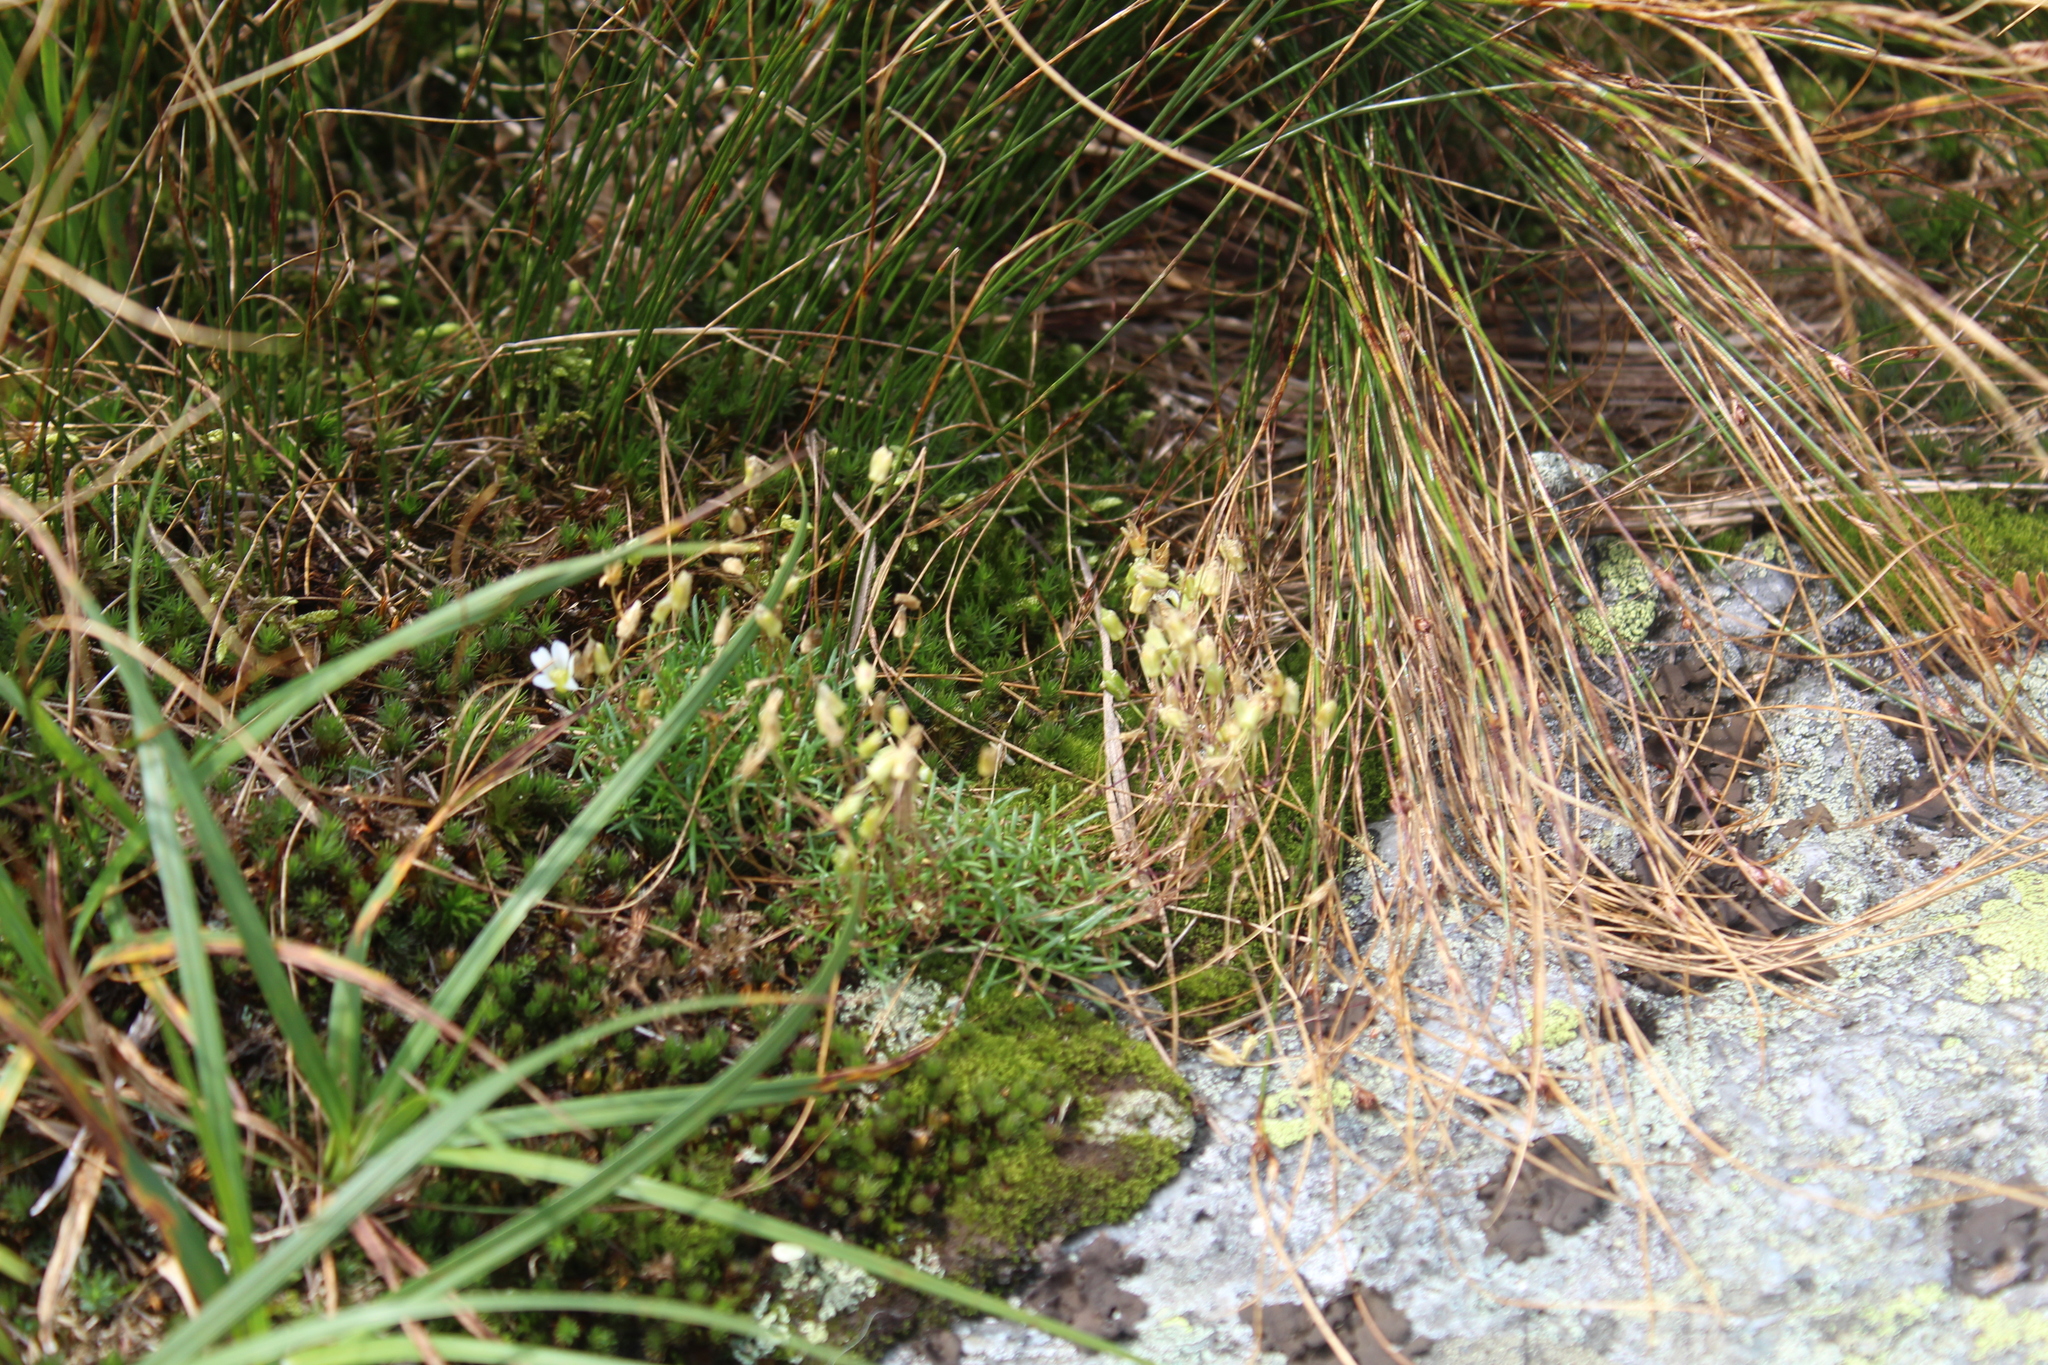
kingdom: Plantae
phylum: Tracheophyta
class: Magnoliopsida
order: Caryophyllales
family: Caryophyllaceae
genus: Geocarpon
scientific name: Geocarpon groenlandicum
